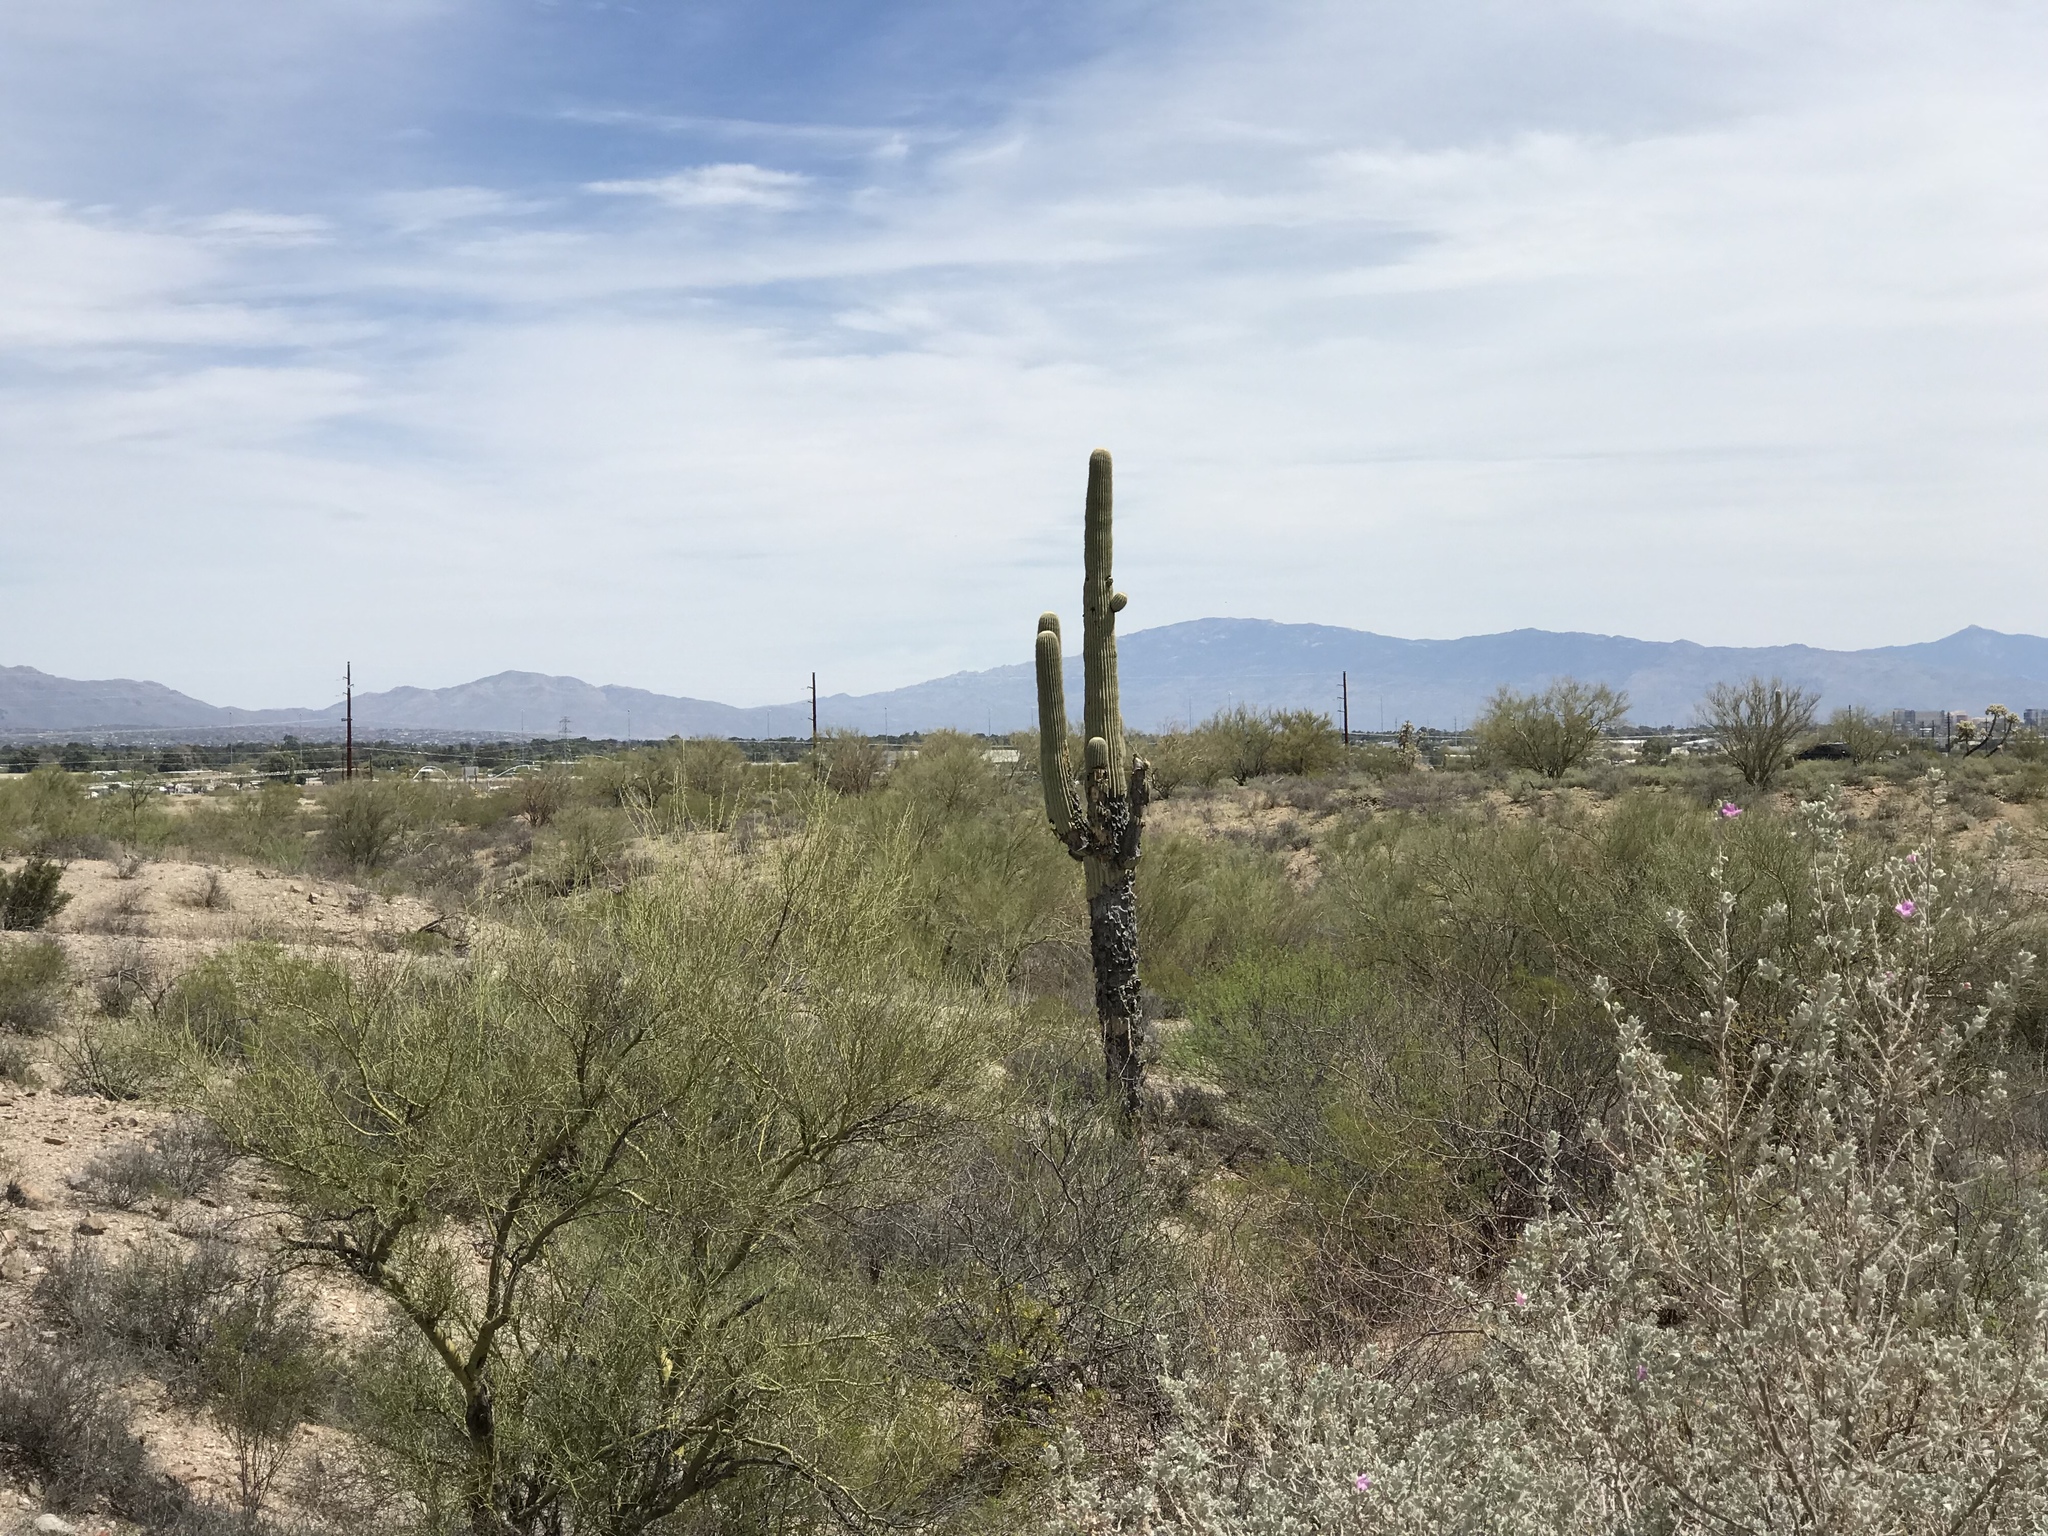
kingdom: Plantae
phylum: Tracheophyta
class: Magnoliopsida
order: Caryophyllales
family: Cactaceae
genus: Carnegiea
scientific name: Carnegiea gigantea
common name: Saguaro
